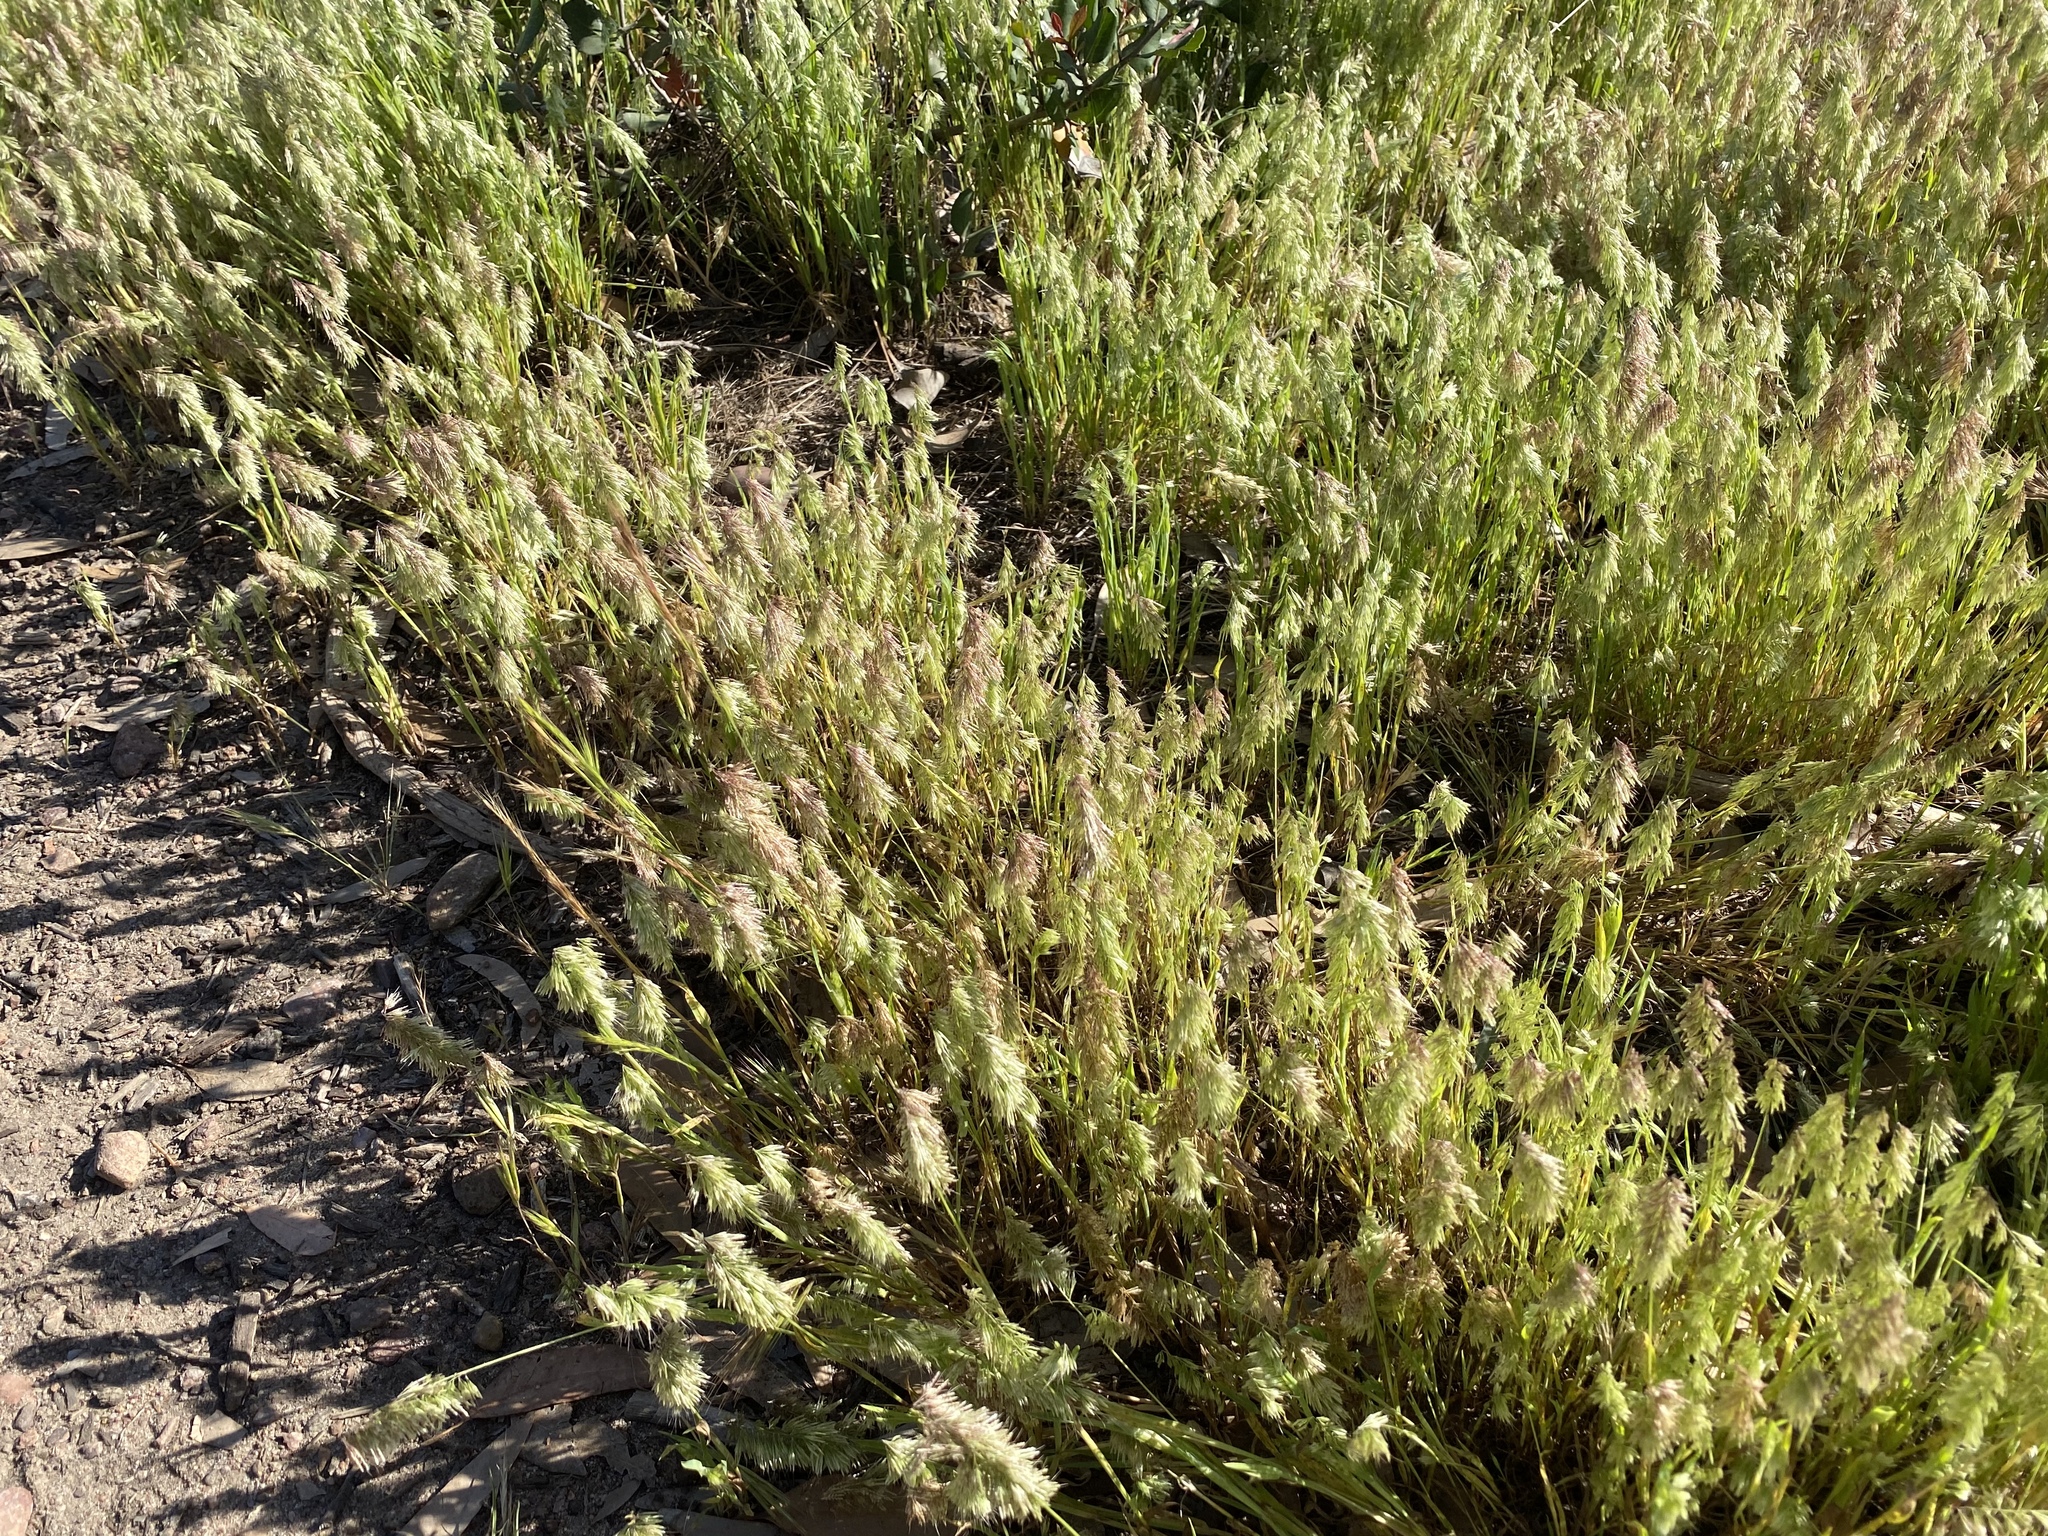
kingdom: Plantae
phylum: Tracheophyta
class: Liliopsida
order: Poales
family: Poaceae
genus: Lamarckia
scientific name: Lamarckia aurea
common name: Golden dog's-tail
